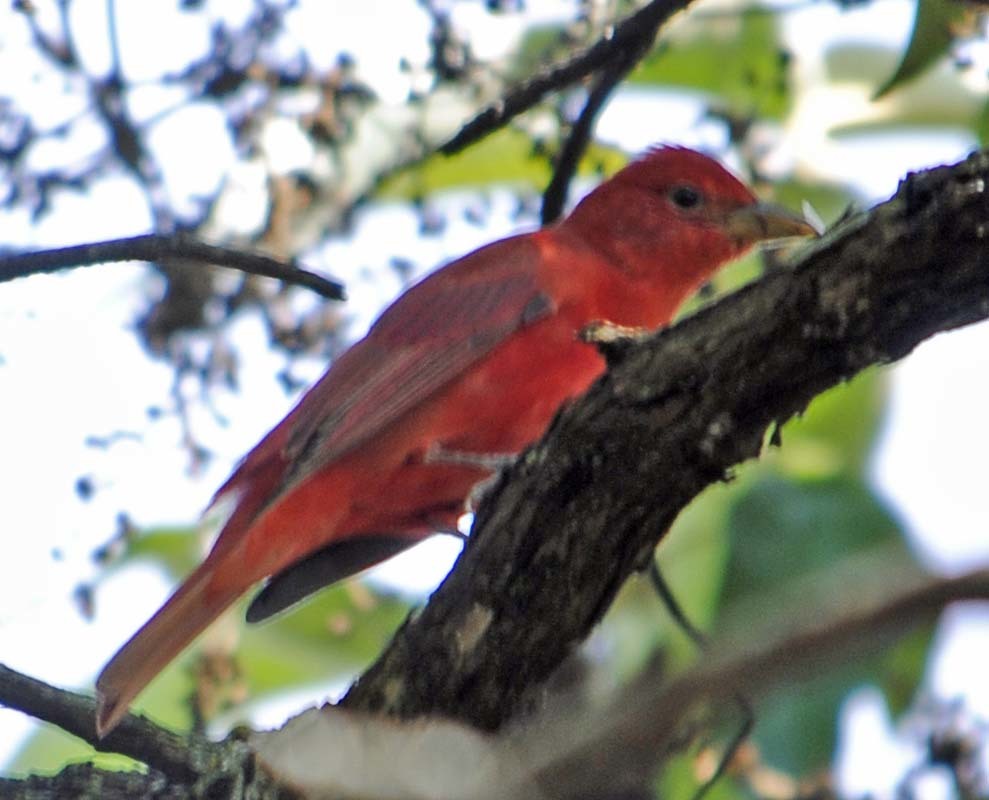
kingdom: Animalia
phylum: Chordata
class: Aves
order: Passeriformes
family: Cardinalidae
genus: Piranga
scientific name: Piranga rubra
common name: Summer tanager
